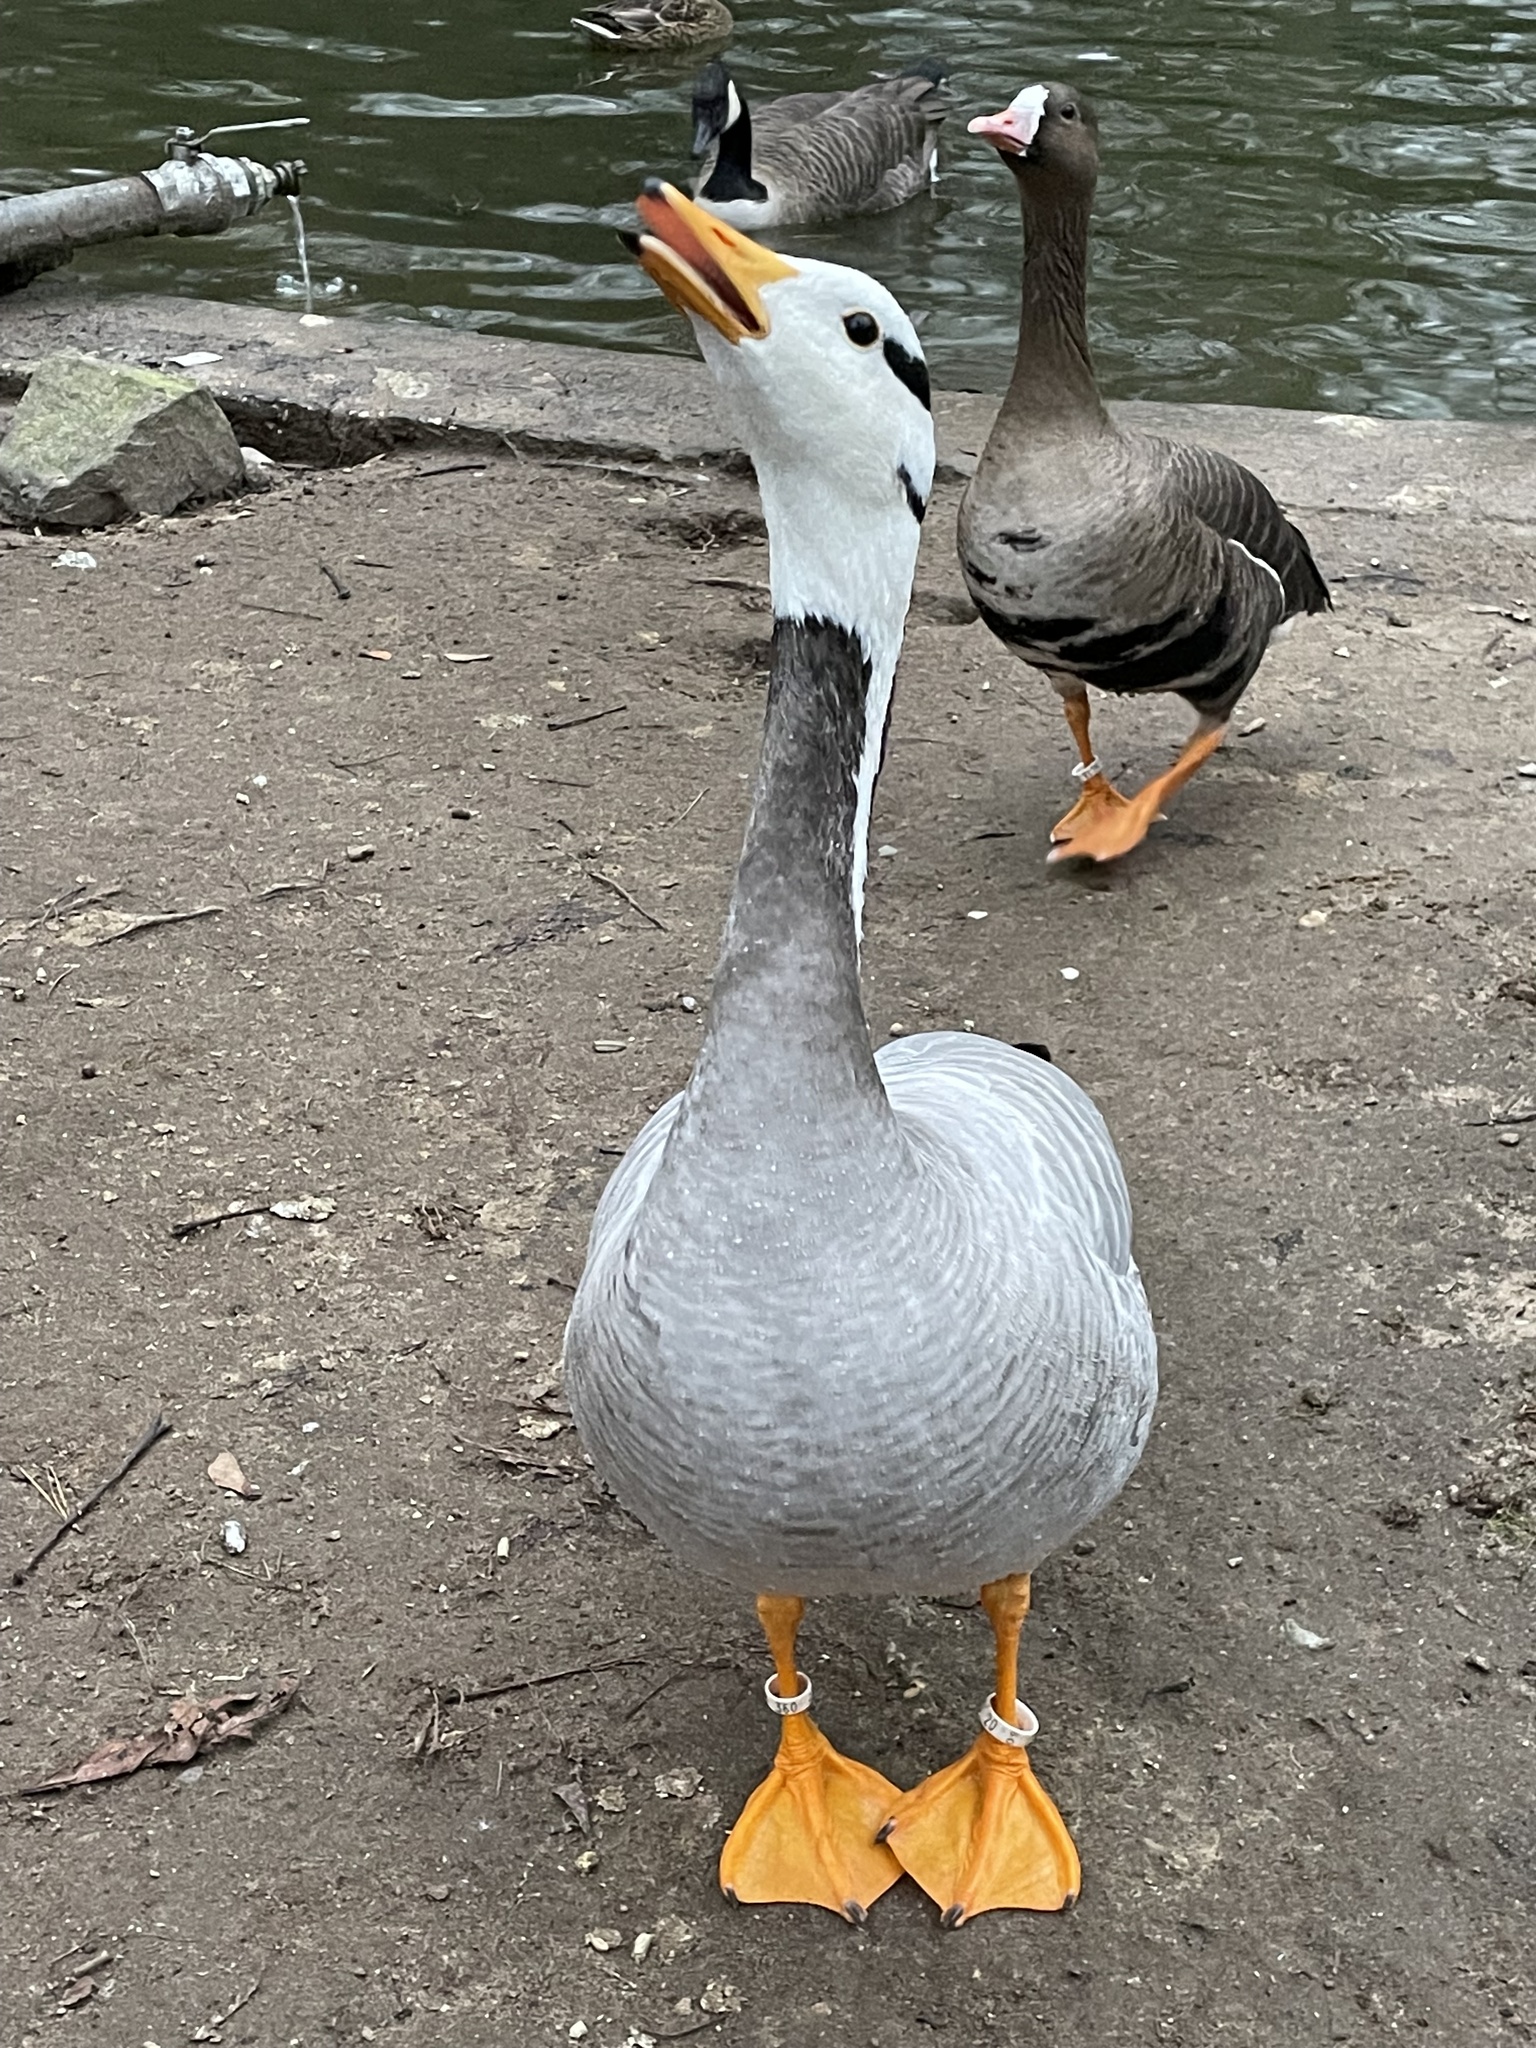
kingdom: Animalia
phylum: Chordata
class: Aves
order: Anseriformes
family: Anatidae
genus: Anser
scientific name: Anser indicus
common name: Bar-headed goose
